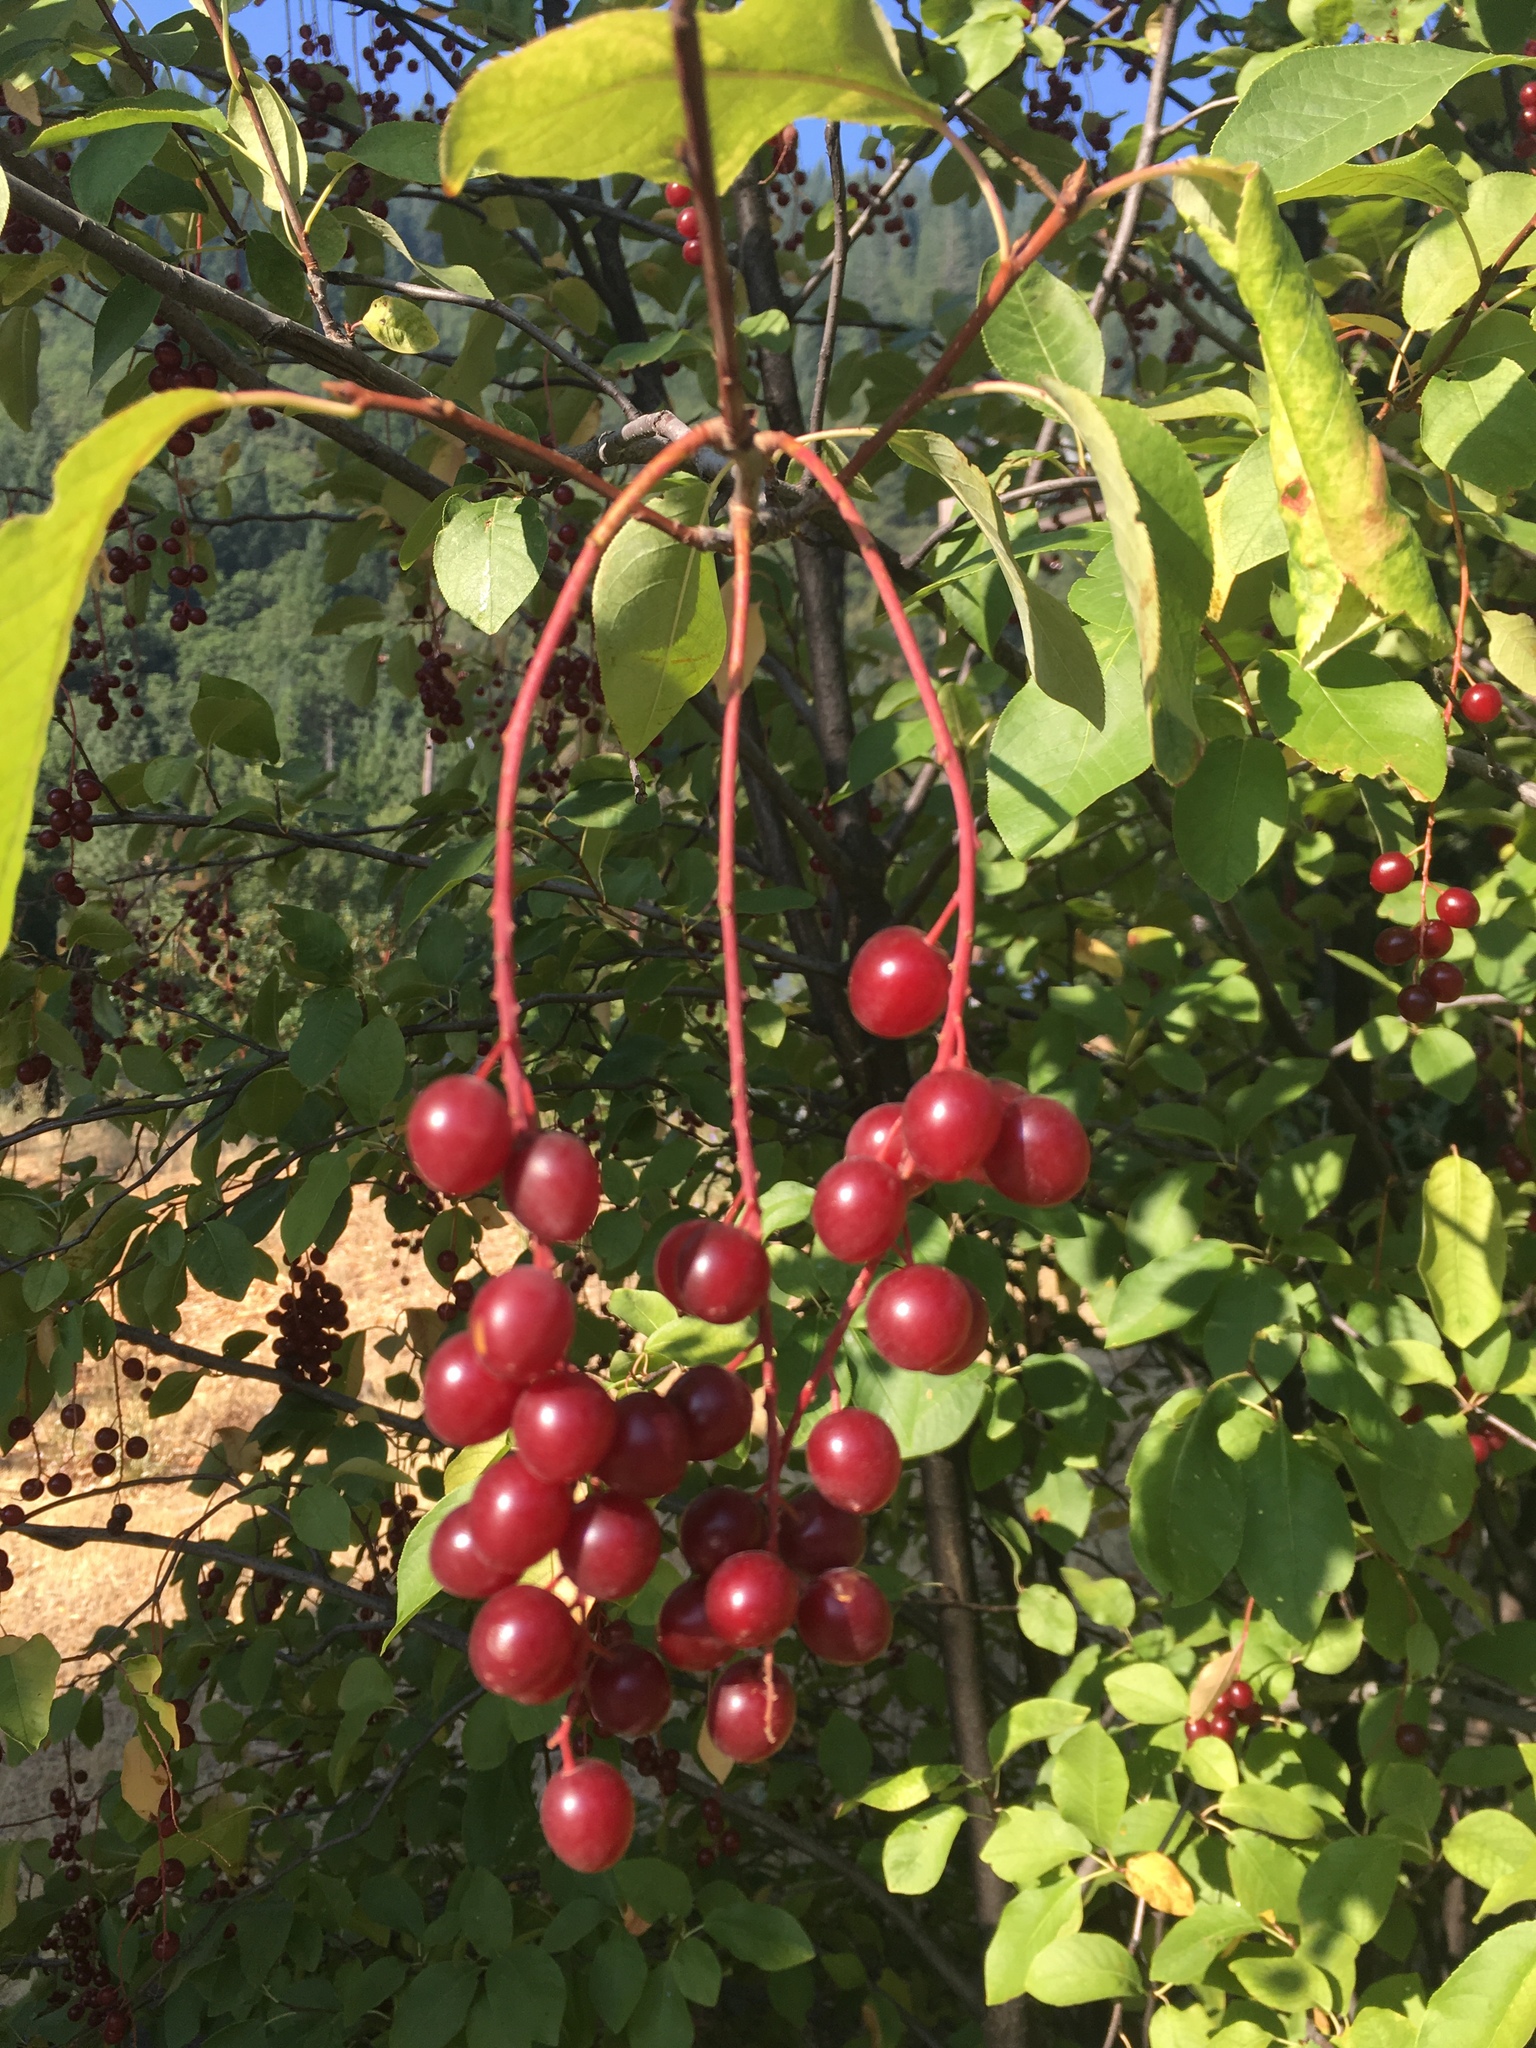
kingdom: Plantae
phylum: Tracheophyta
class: Magnoliopsida
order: Rosales
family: Rosaceae
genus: Prunus
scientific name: Prunus virginiana
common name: Chokecherry
